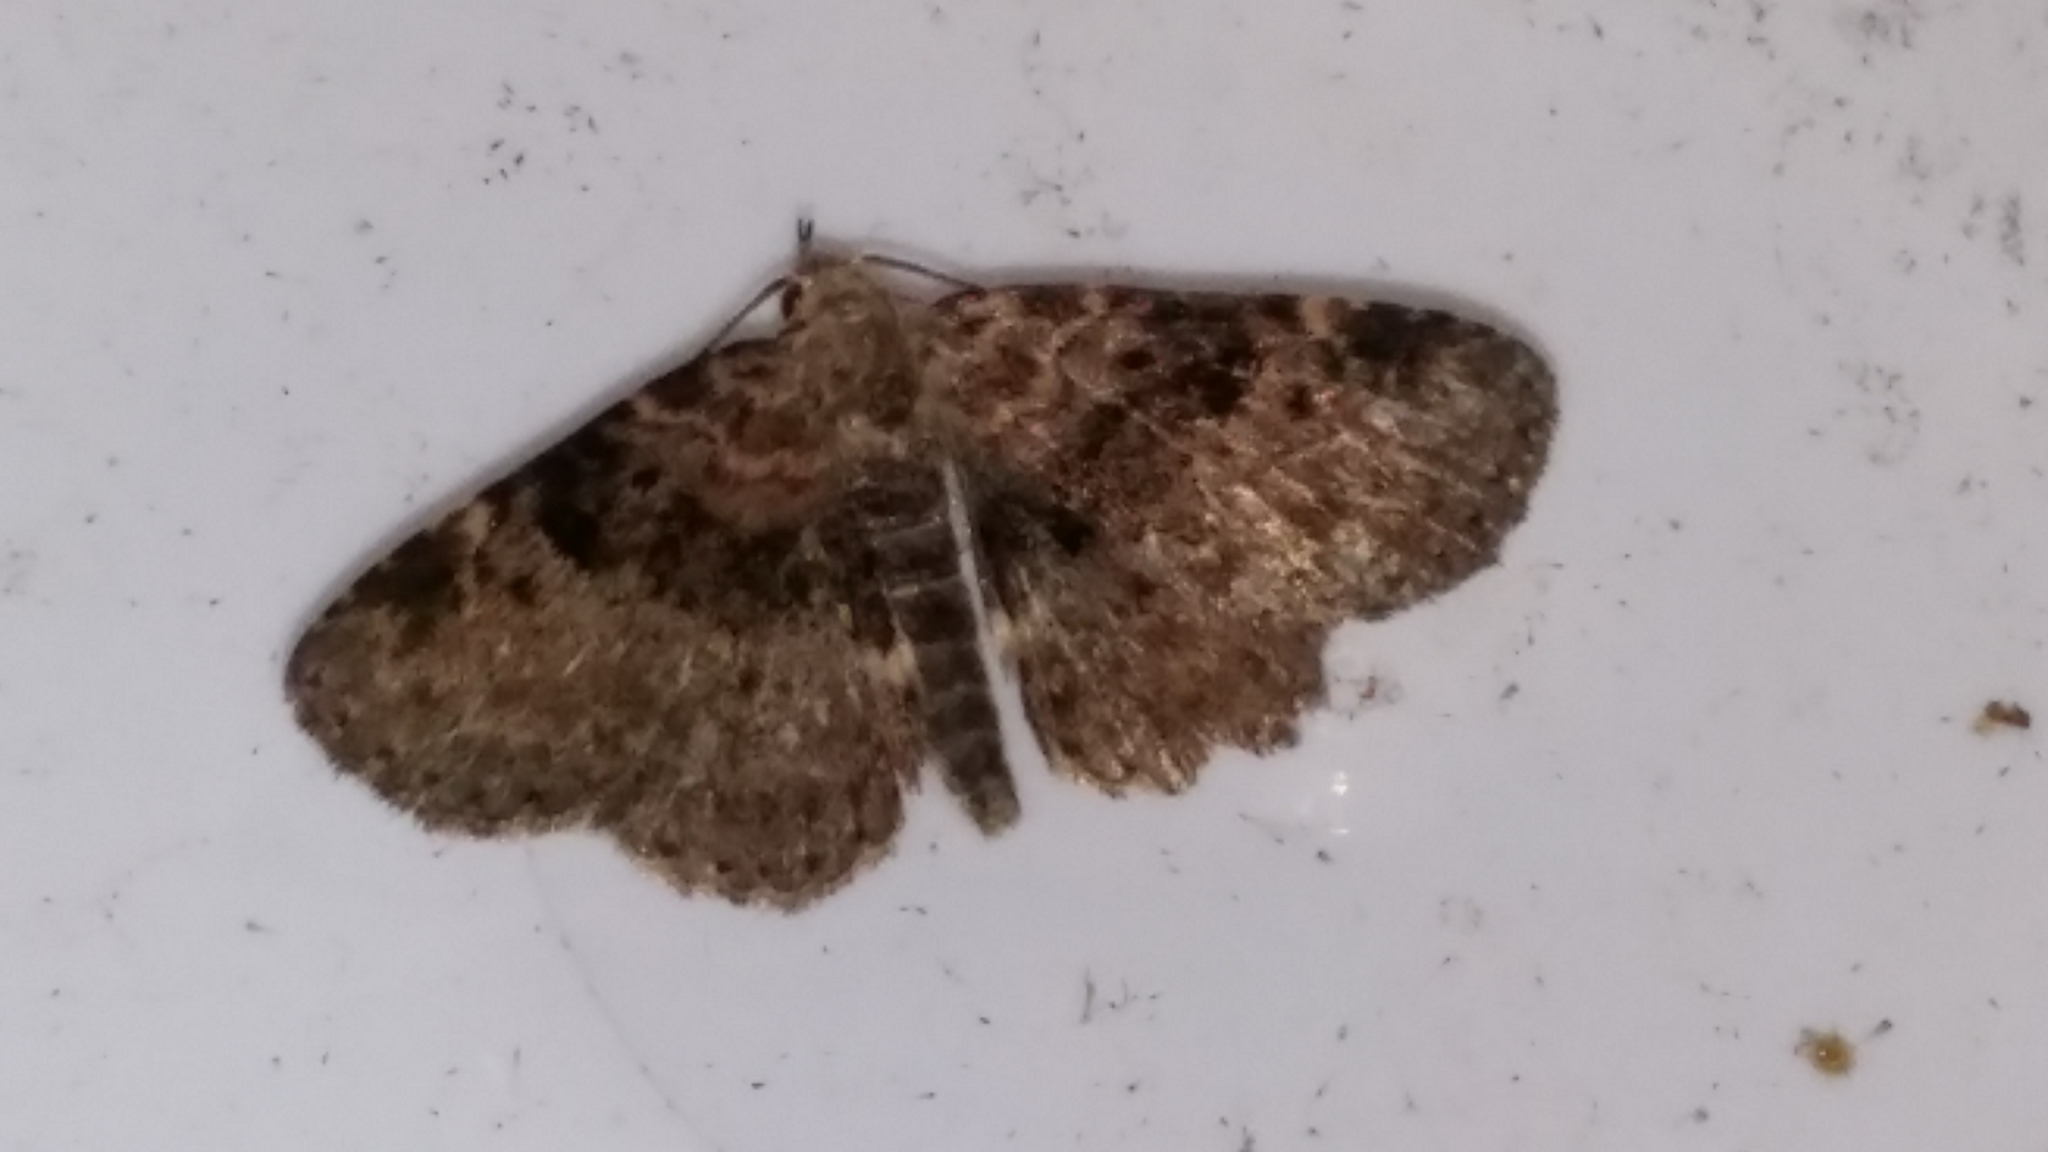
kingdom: Animalia
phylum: Arthropoda
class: Insecta
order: Lepidoptera
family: Erebidae
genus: Metalectra
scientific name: Metalectra discalis
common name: Common fungus moth
